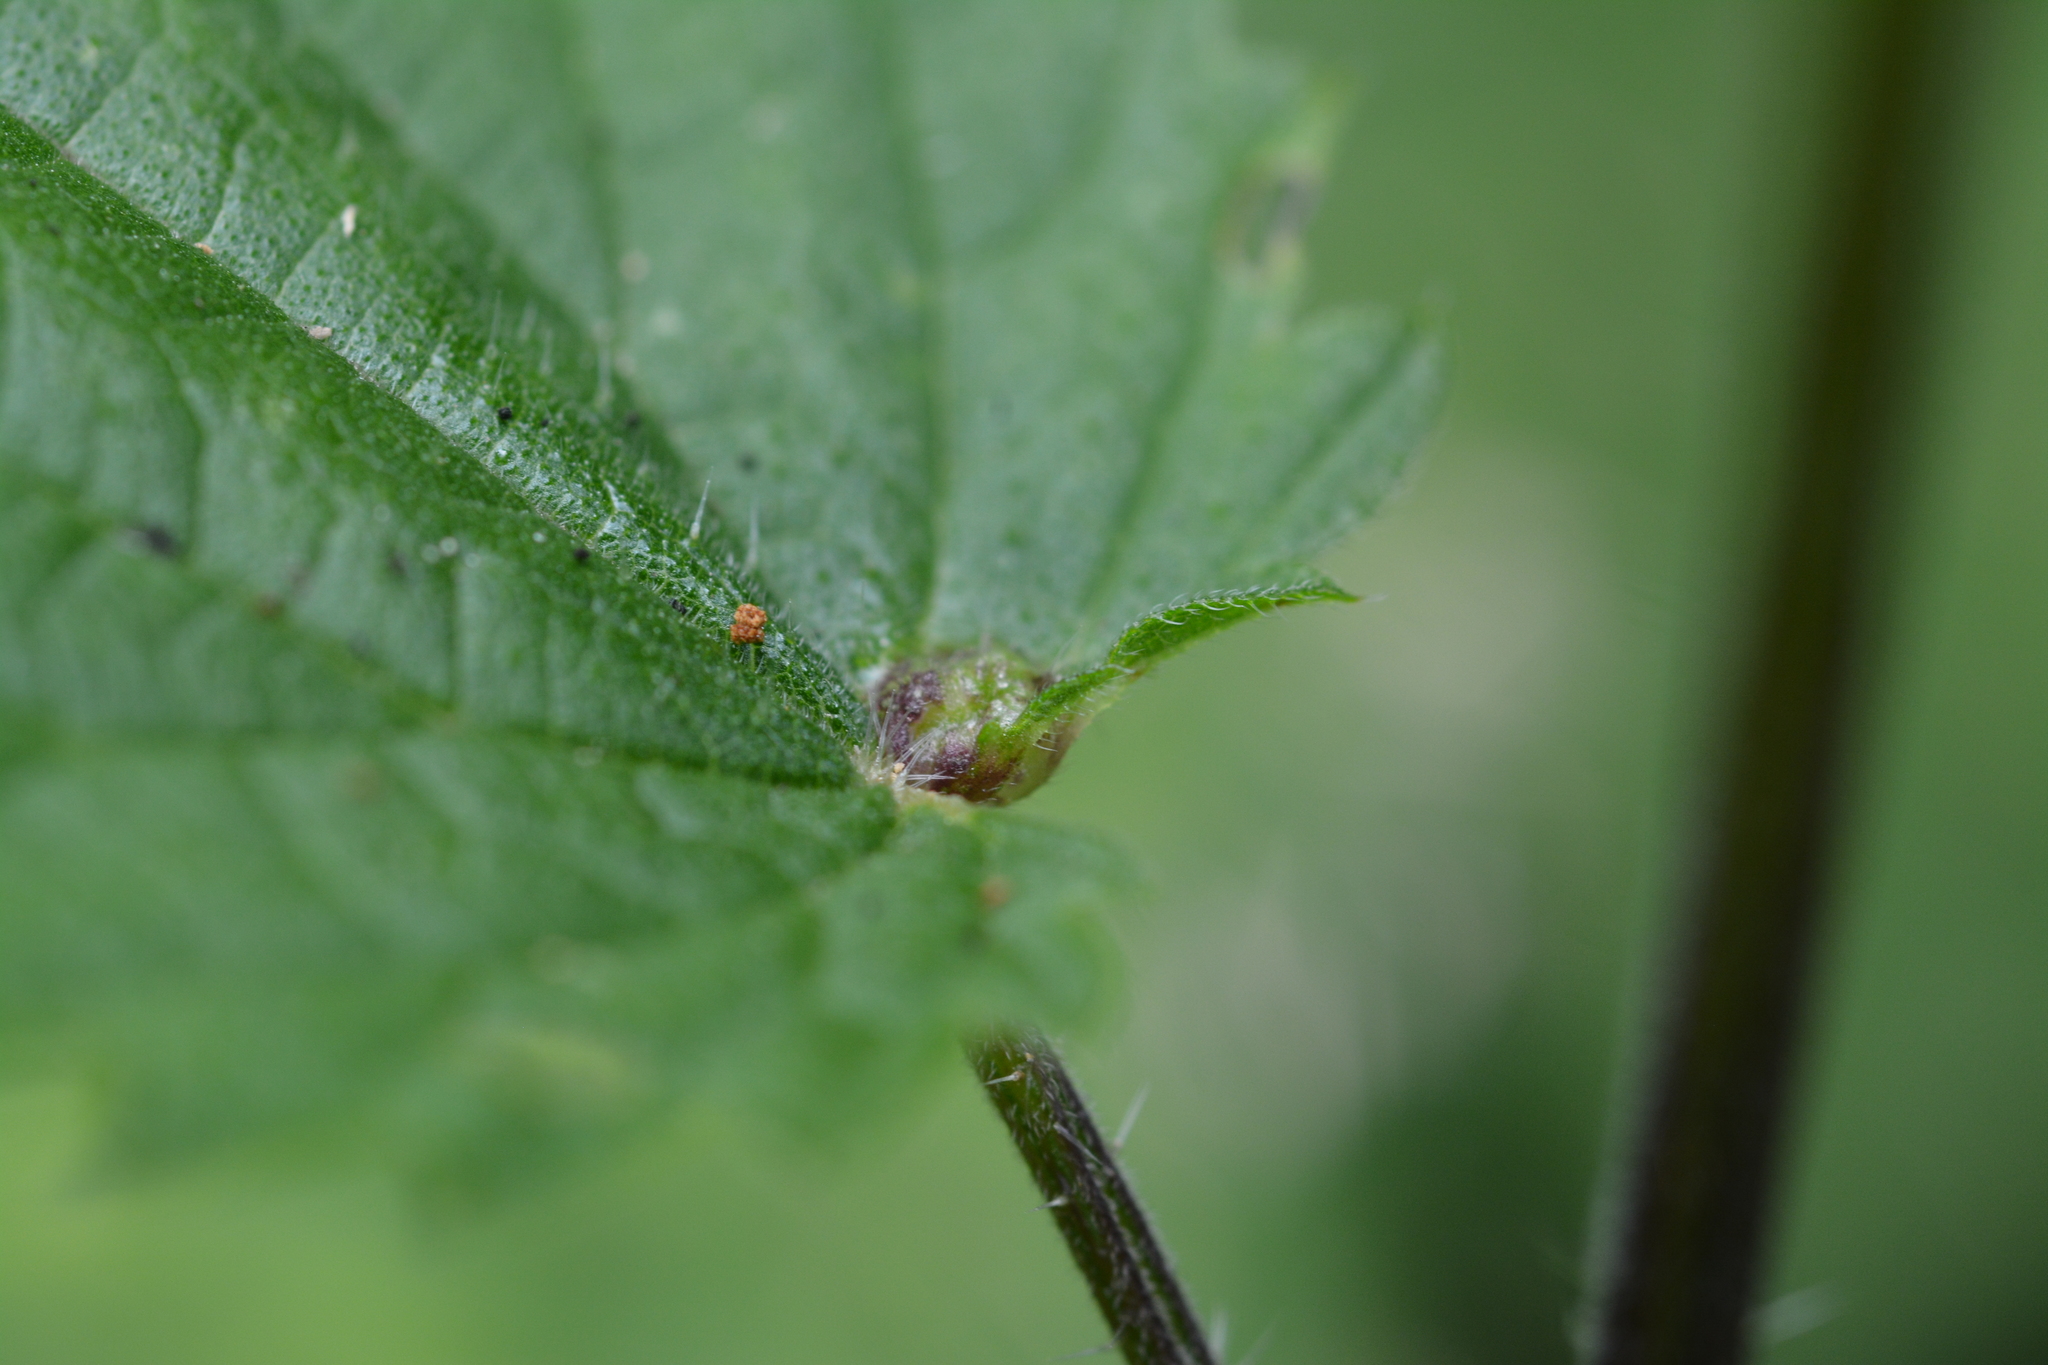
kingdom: Animalia
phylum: Arthropoda
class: Insecta
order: Diptera
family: Cecidomyiidae
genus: Dasineura
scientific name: Dasineura urticae
